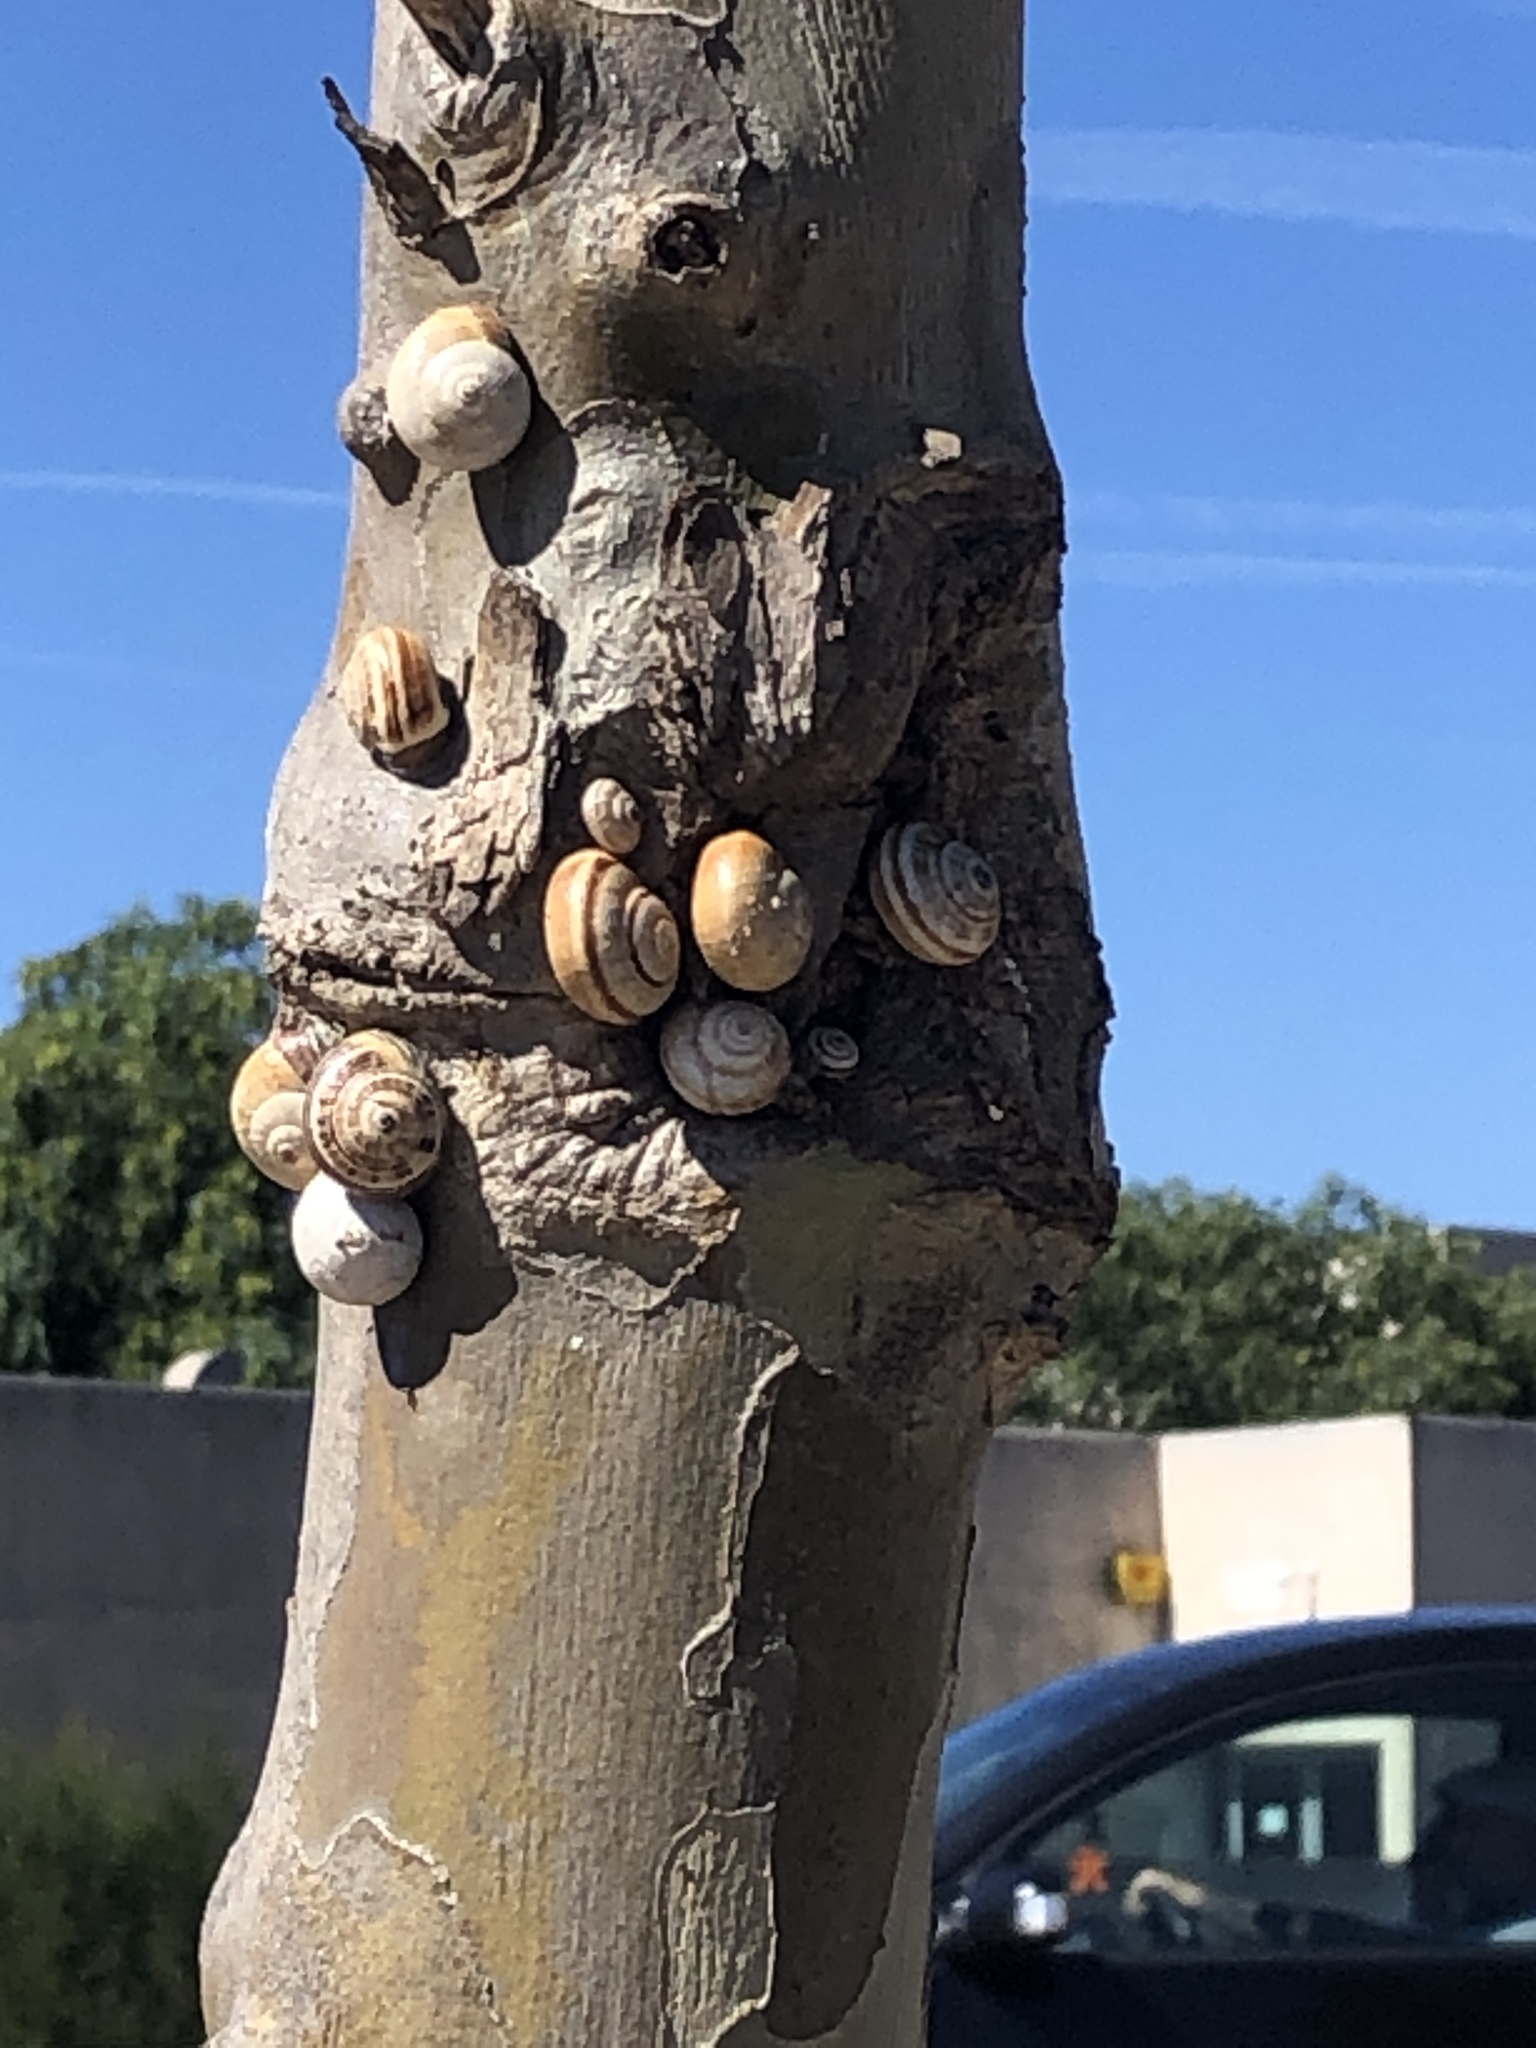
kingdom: Animalia
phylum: Mollusca
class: Gastropoda
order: Stylommatophora
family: Helicidae
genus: Theba
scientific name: Theba pisana
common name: White snail
